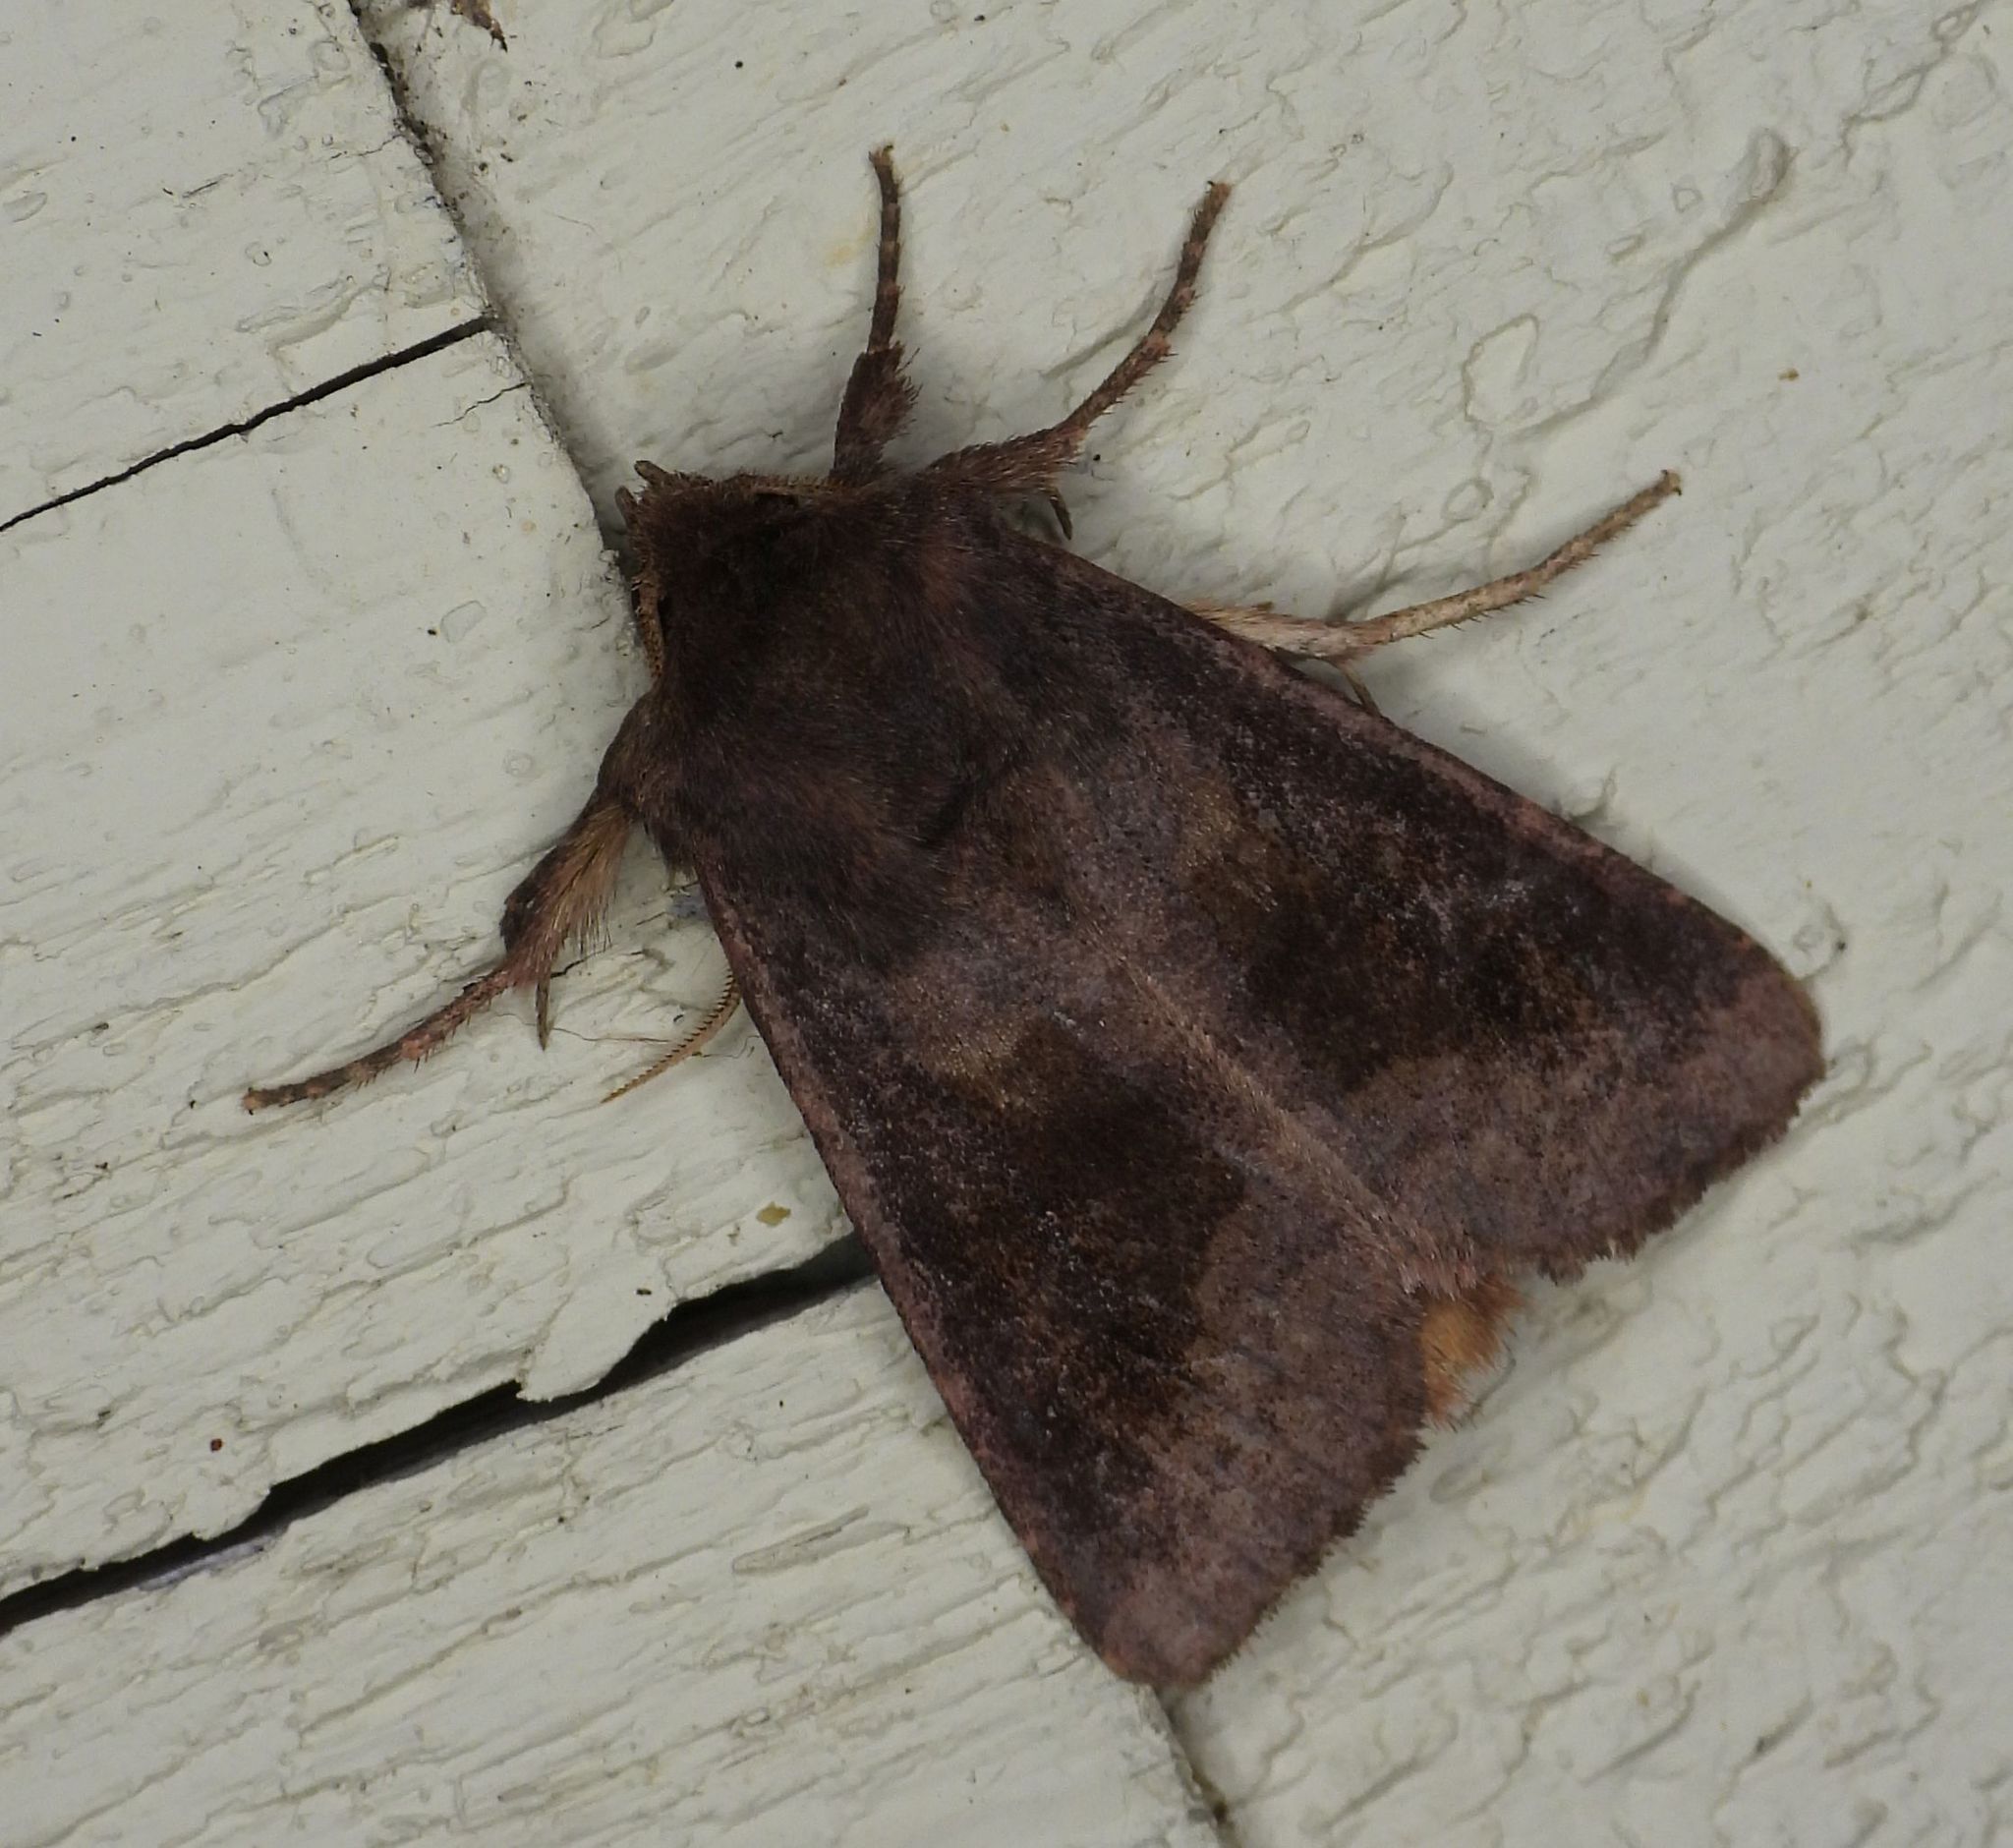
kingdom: Animalia
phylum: Arthropoda
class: Insecta
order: Lepidoptera
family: Noctuidae
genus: Nephelodes
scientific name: Nephelodes minians
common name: Bronzed cutworm
